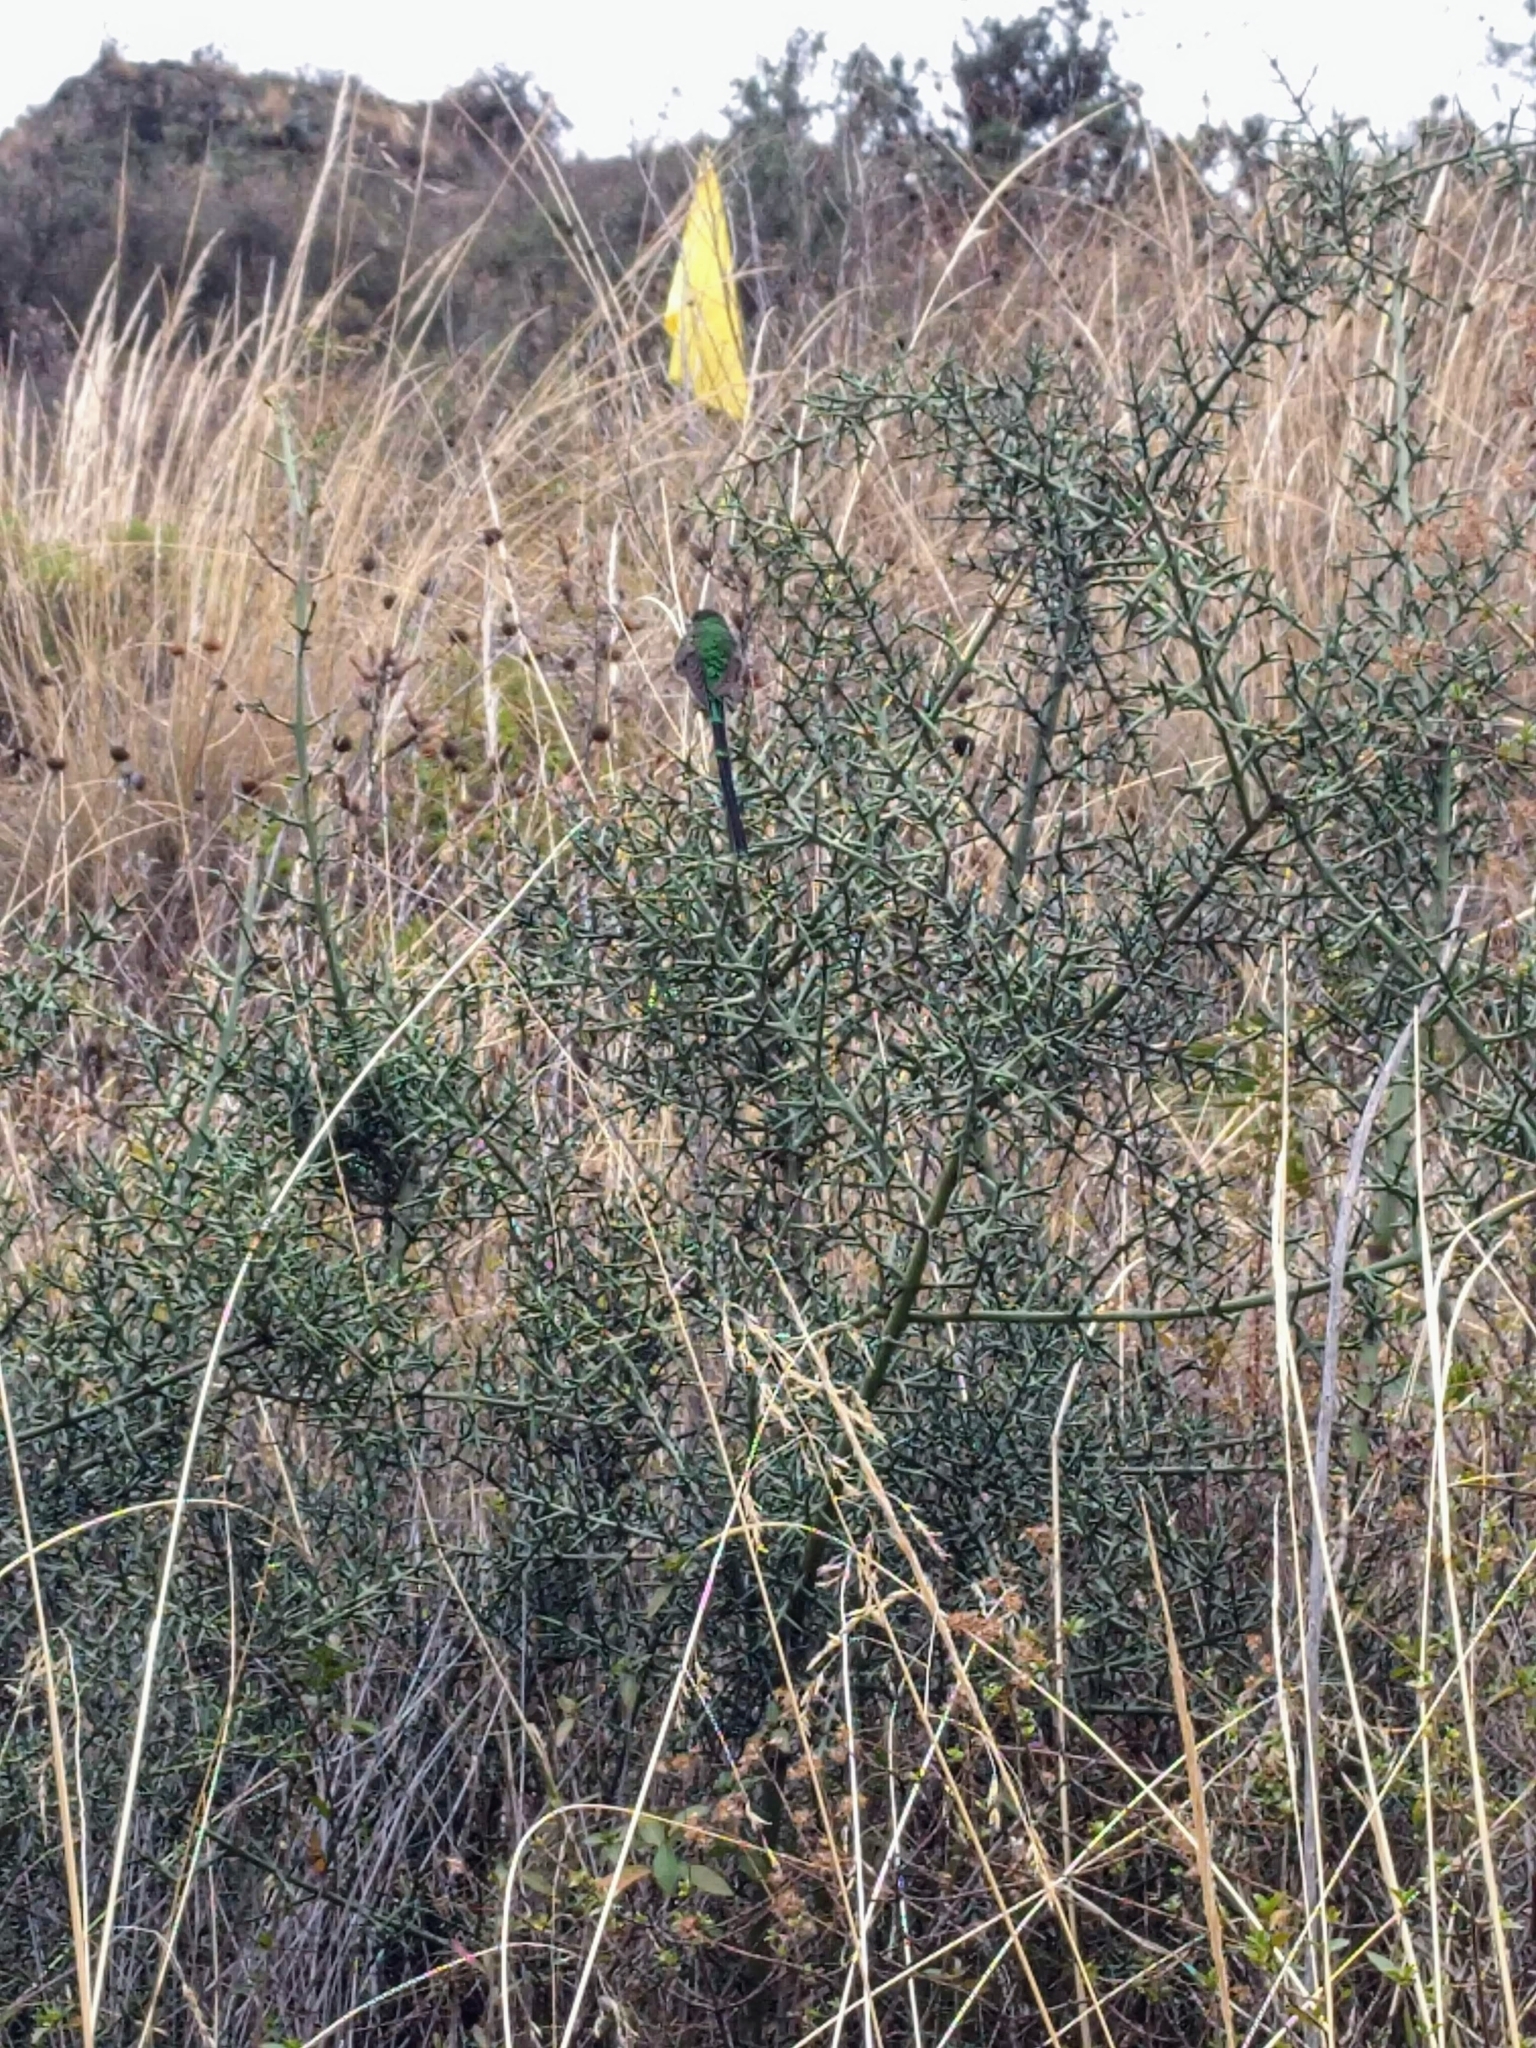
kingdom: Plantae
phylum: Tracheophyta
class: Magnoliopsida
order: Rosales
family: Rhamnaceae
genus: Colletia
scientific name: Colletia spinosissima
